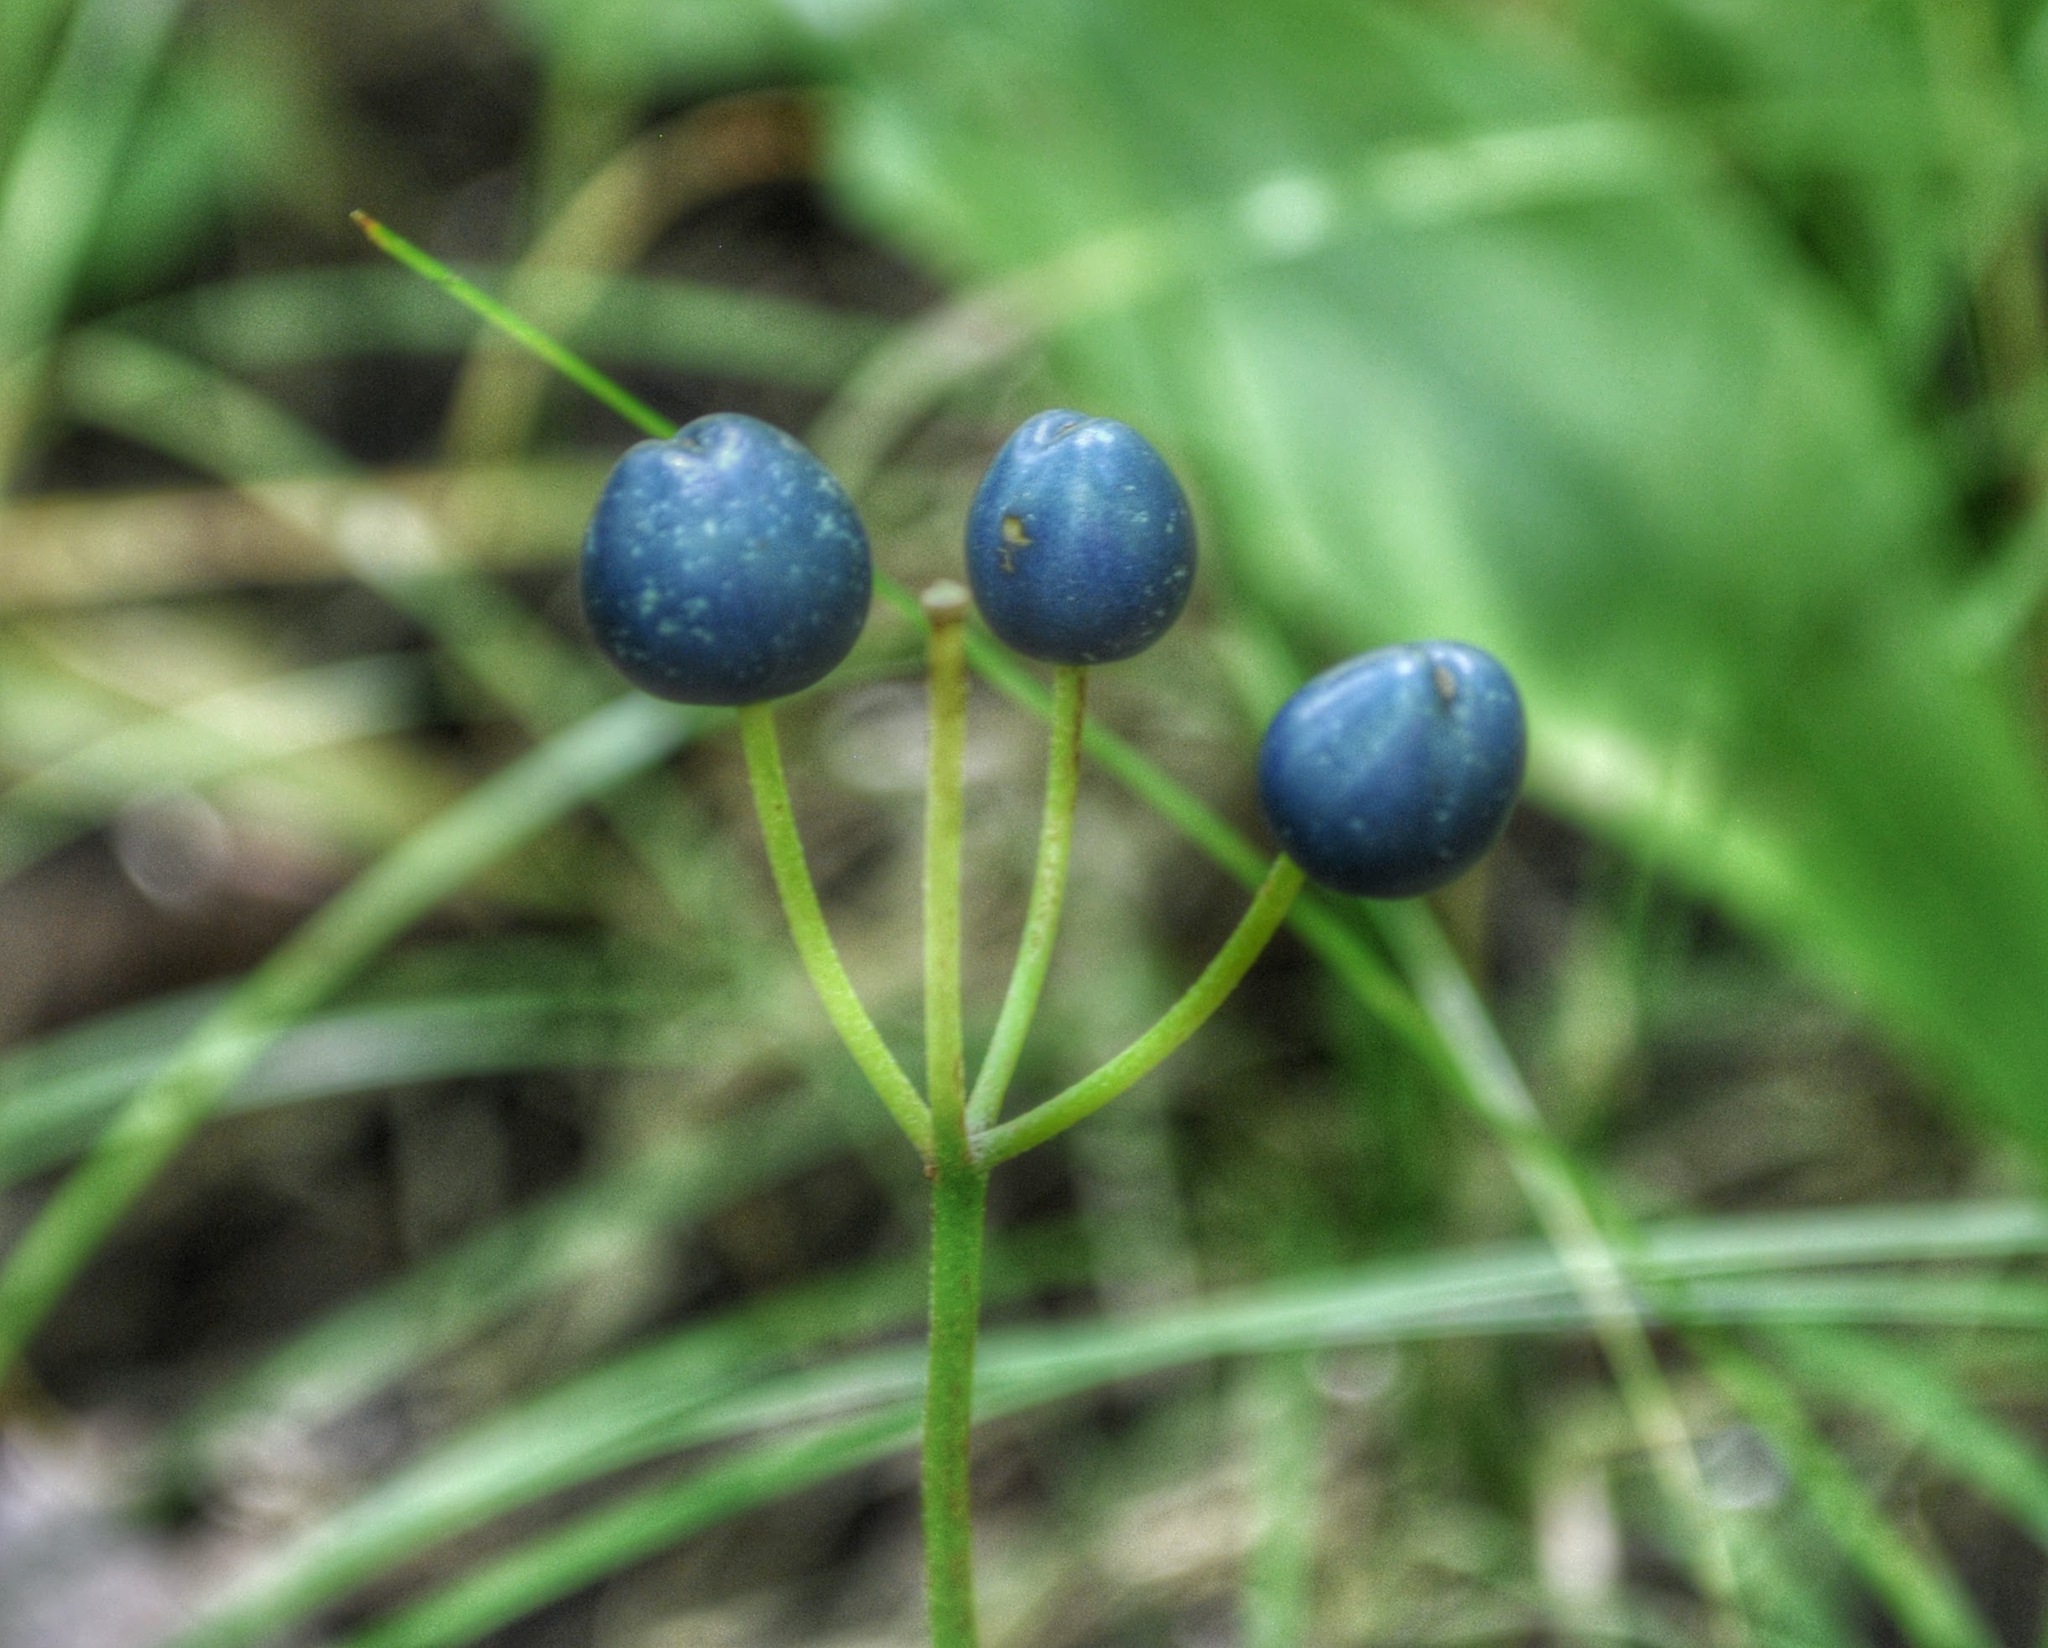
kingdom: Plantae
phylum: Tracheophyta
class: Liliopsida
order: Liliales
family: Liliaceae
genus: Clintonia
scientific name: Clintonia borealis
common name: Yellow clintonia
